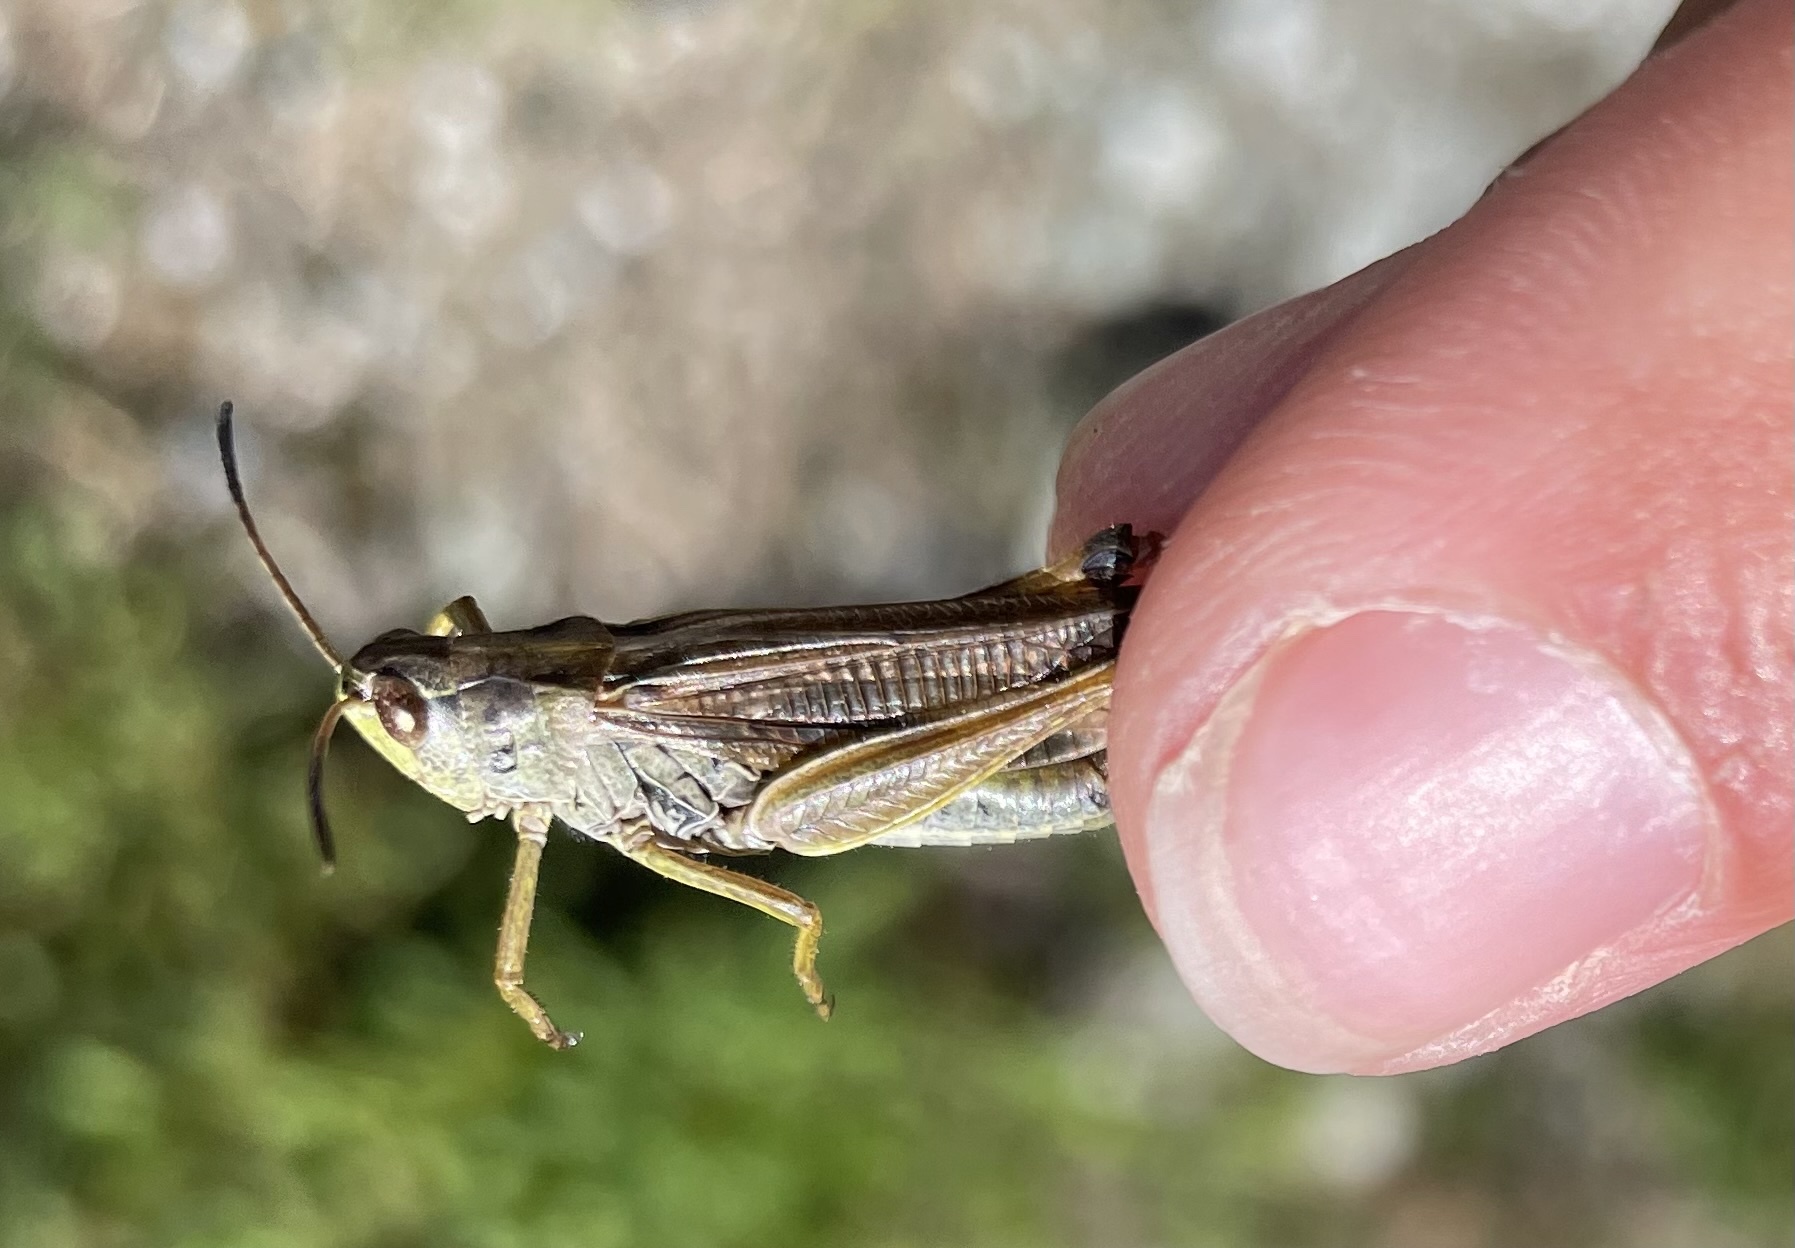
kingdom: Animalia
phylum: Arthropoda
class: Insecta
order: Orthoptera
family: Acrididae
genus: Stauroderus
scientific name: Stauroderus scalaris
